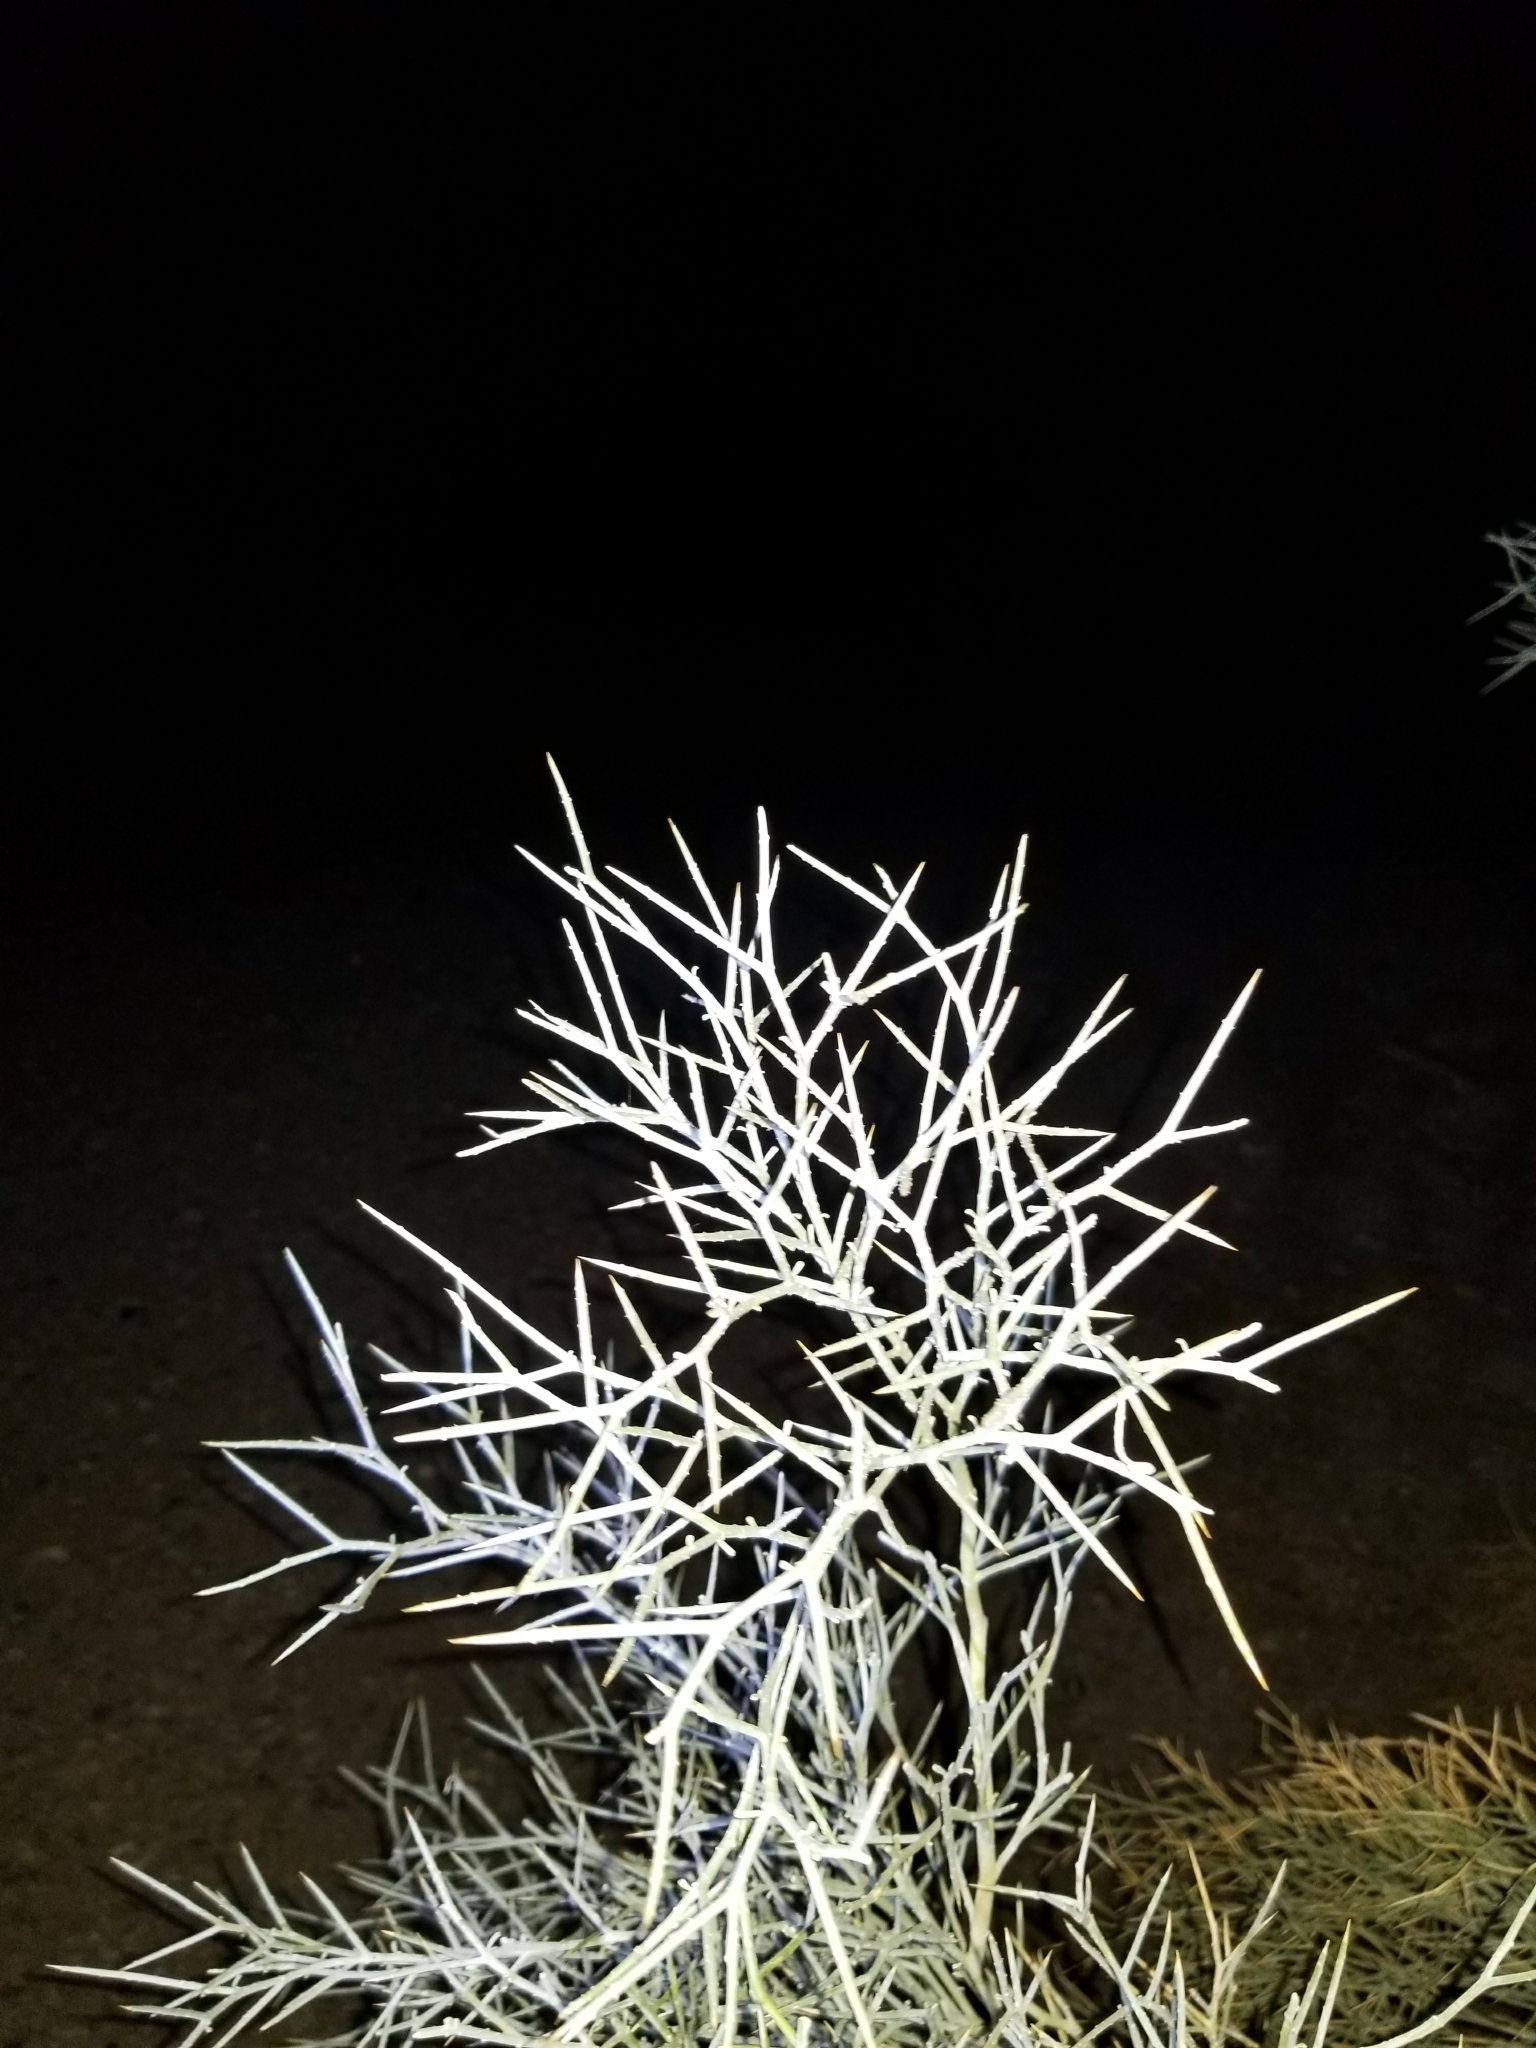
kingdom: Plantae
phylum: Tracheophyta
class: Magnoliopsida
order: Fabales
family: Fabaceae
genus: Psorothamnus
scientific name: Psorothamnus spinosus
